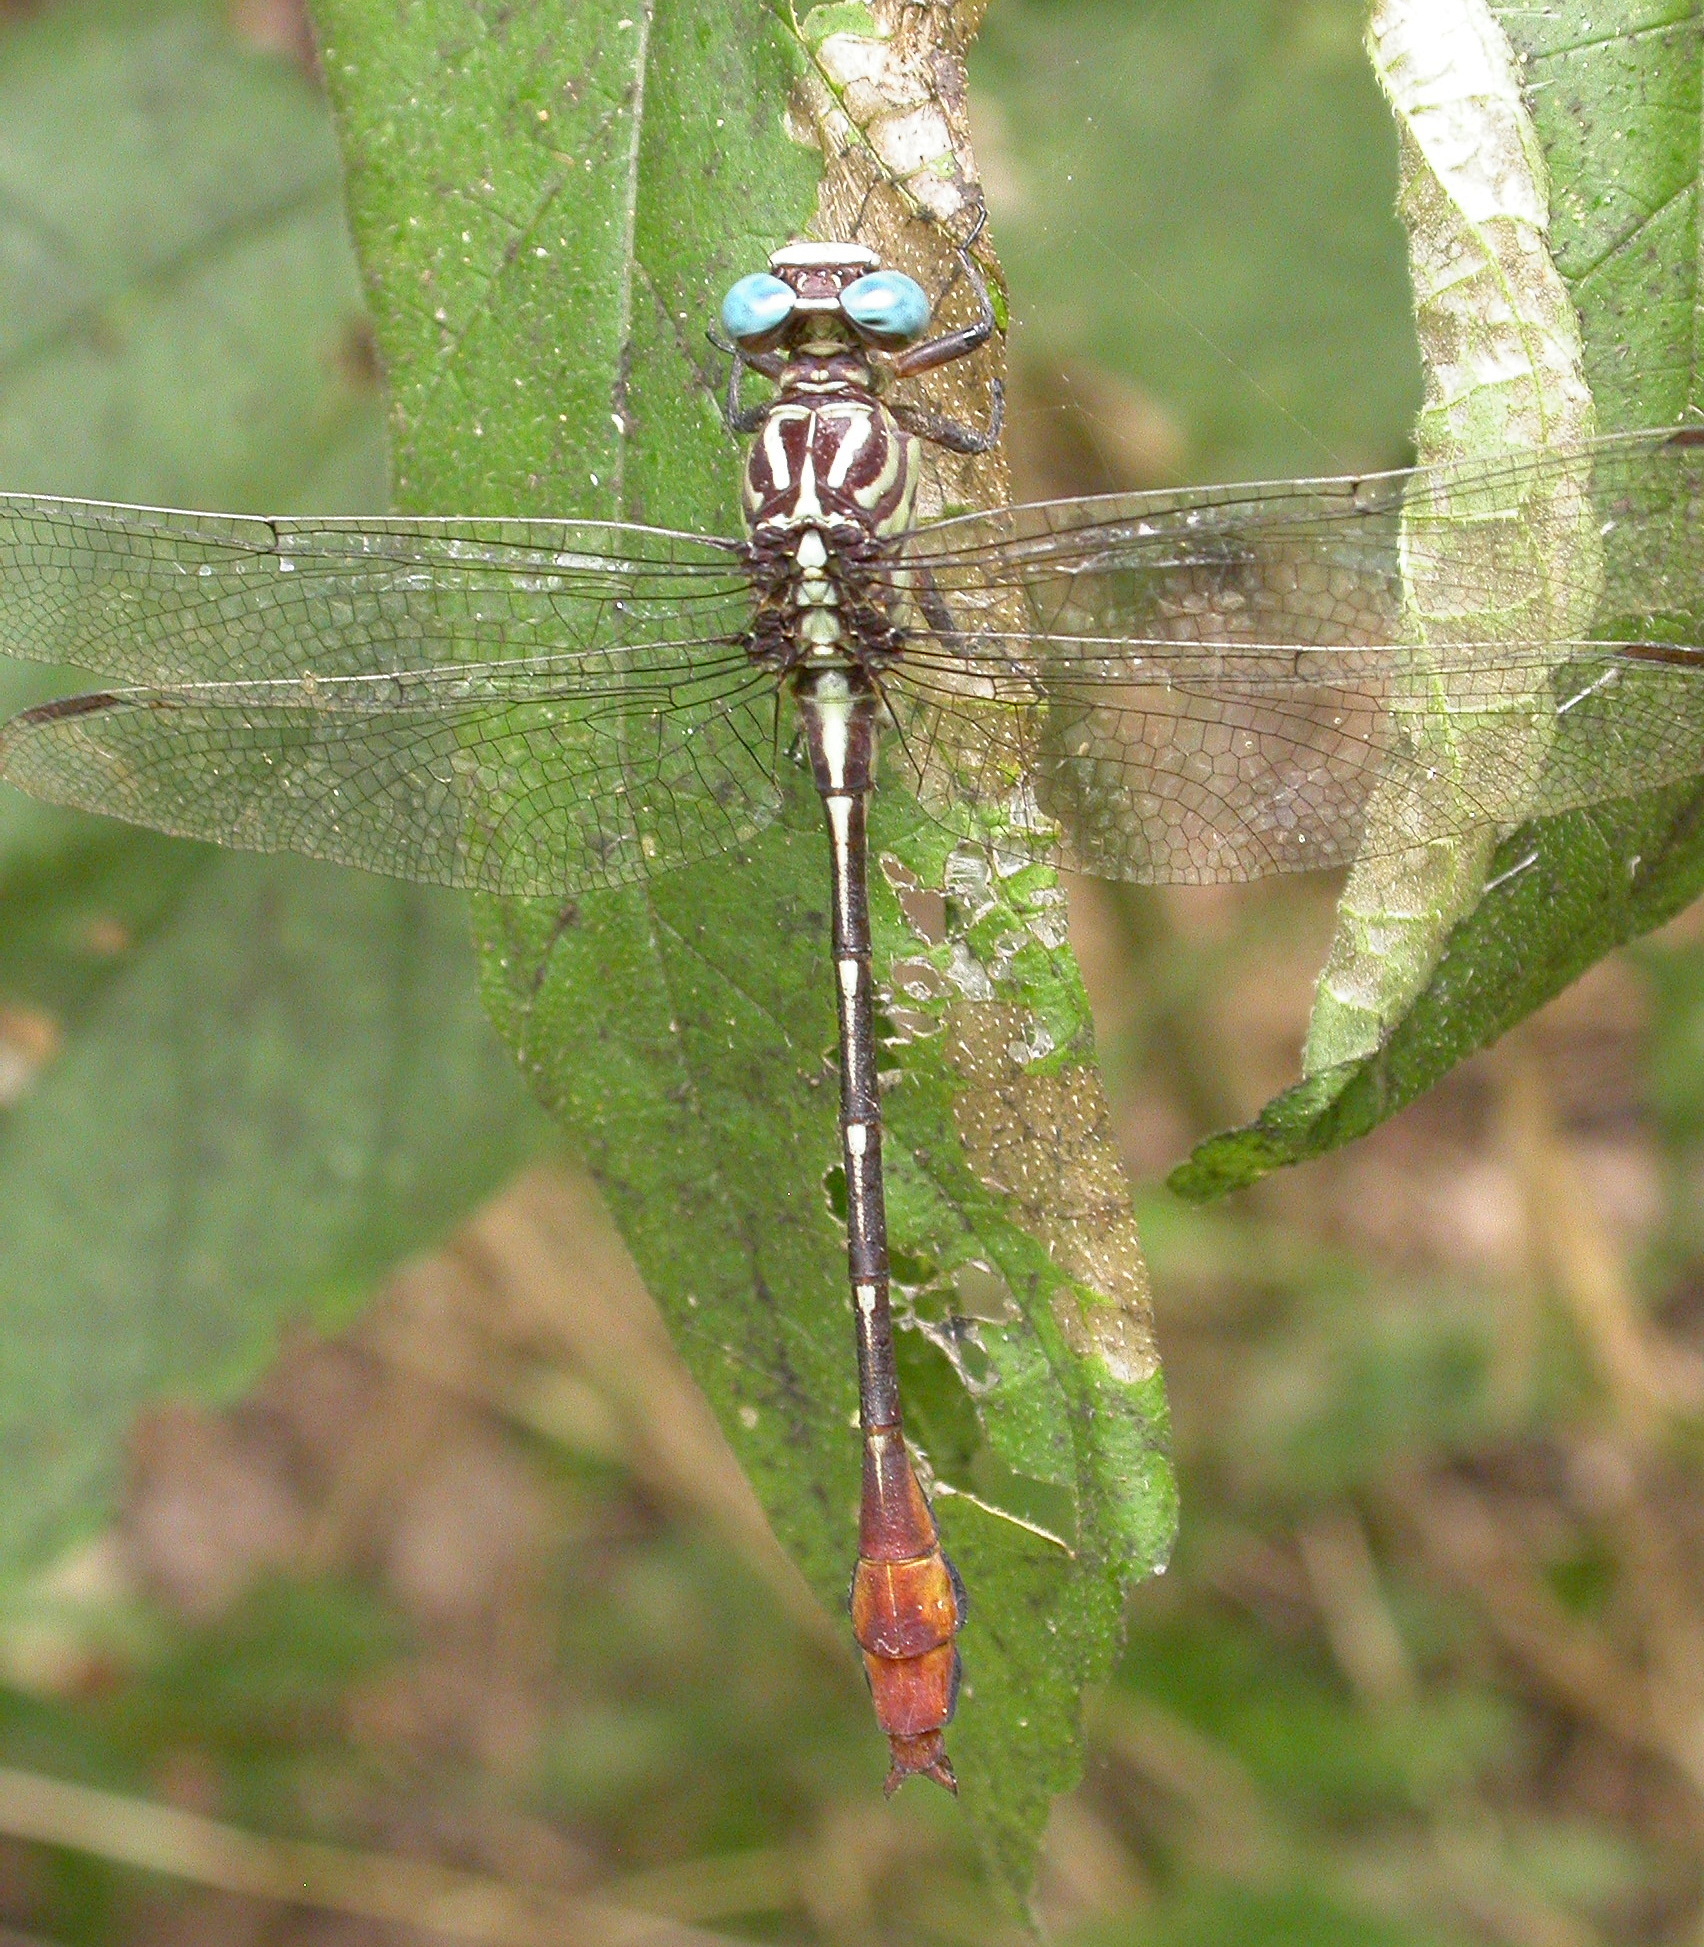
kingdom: Animalia
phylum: Arthropoda
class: Insecta
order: Odonata
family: Gomphidae
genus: Stylurus
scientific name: Stylurus plagiatus
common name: Russet-tipped clubtail
